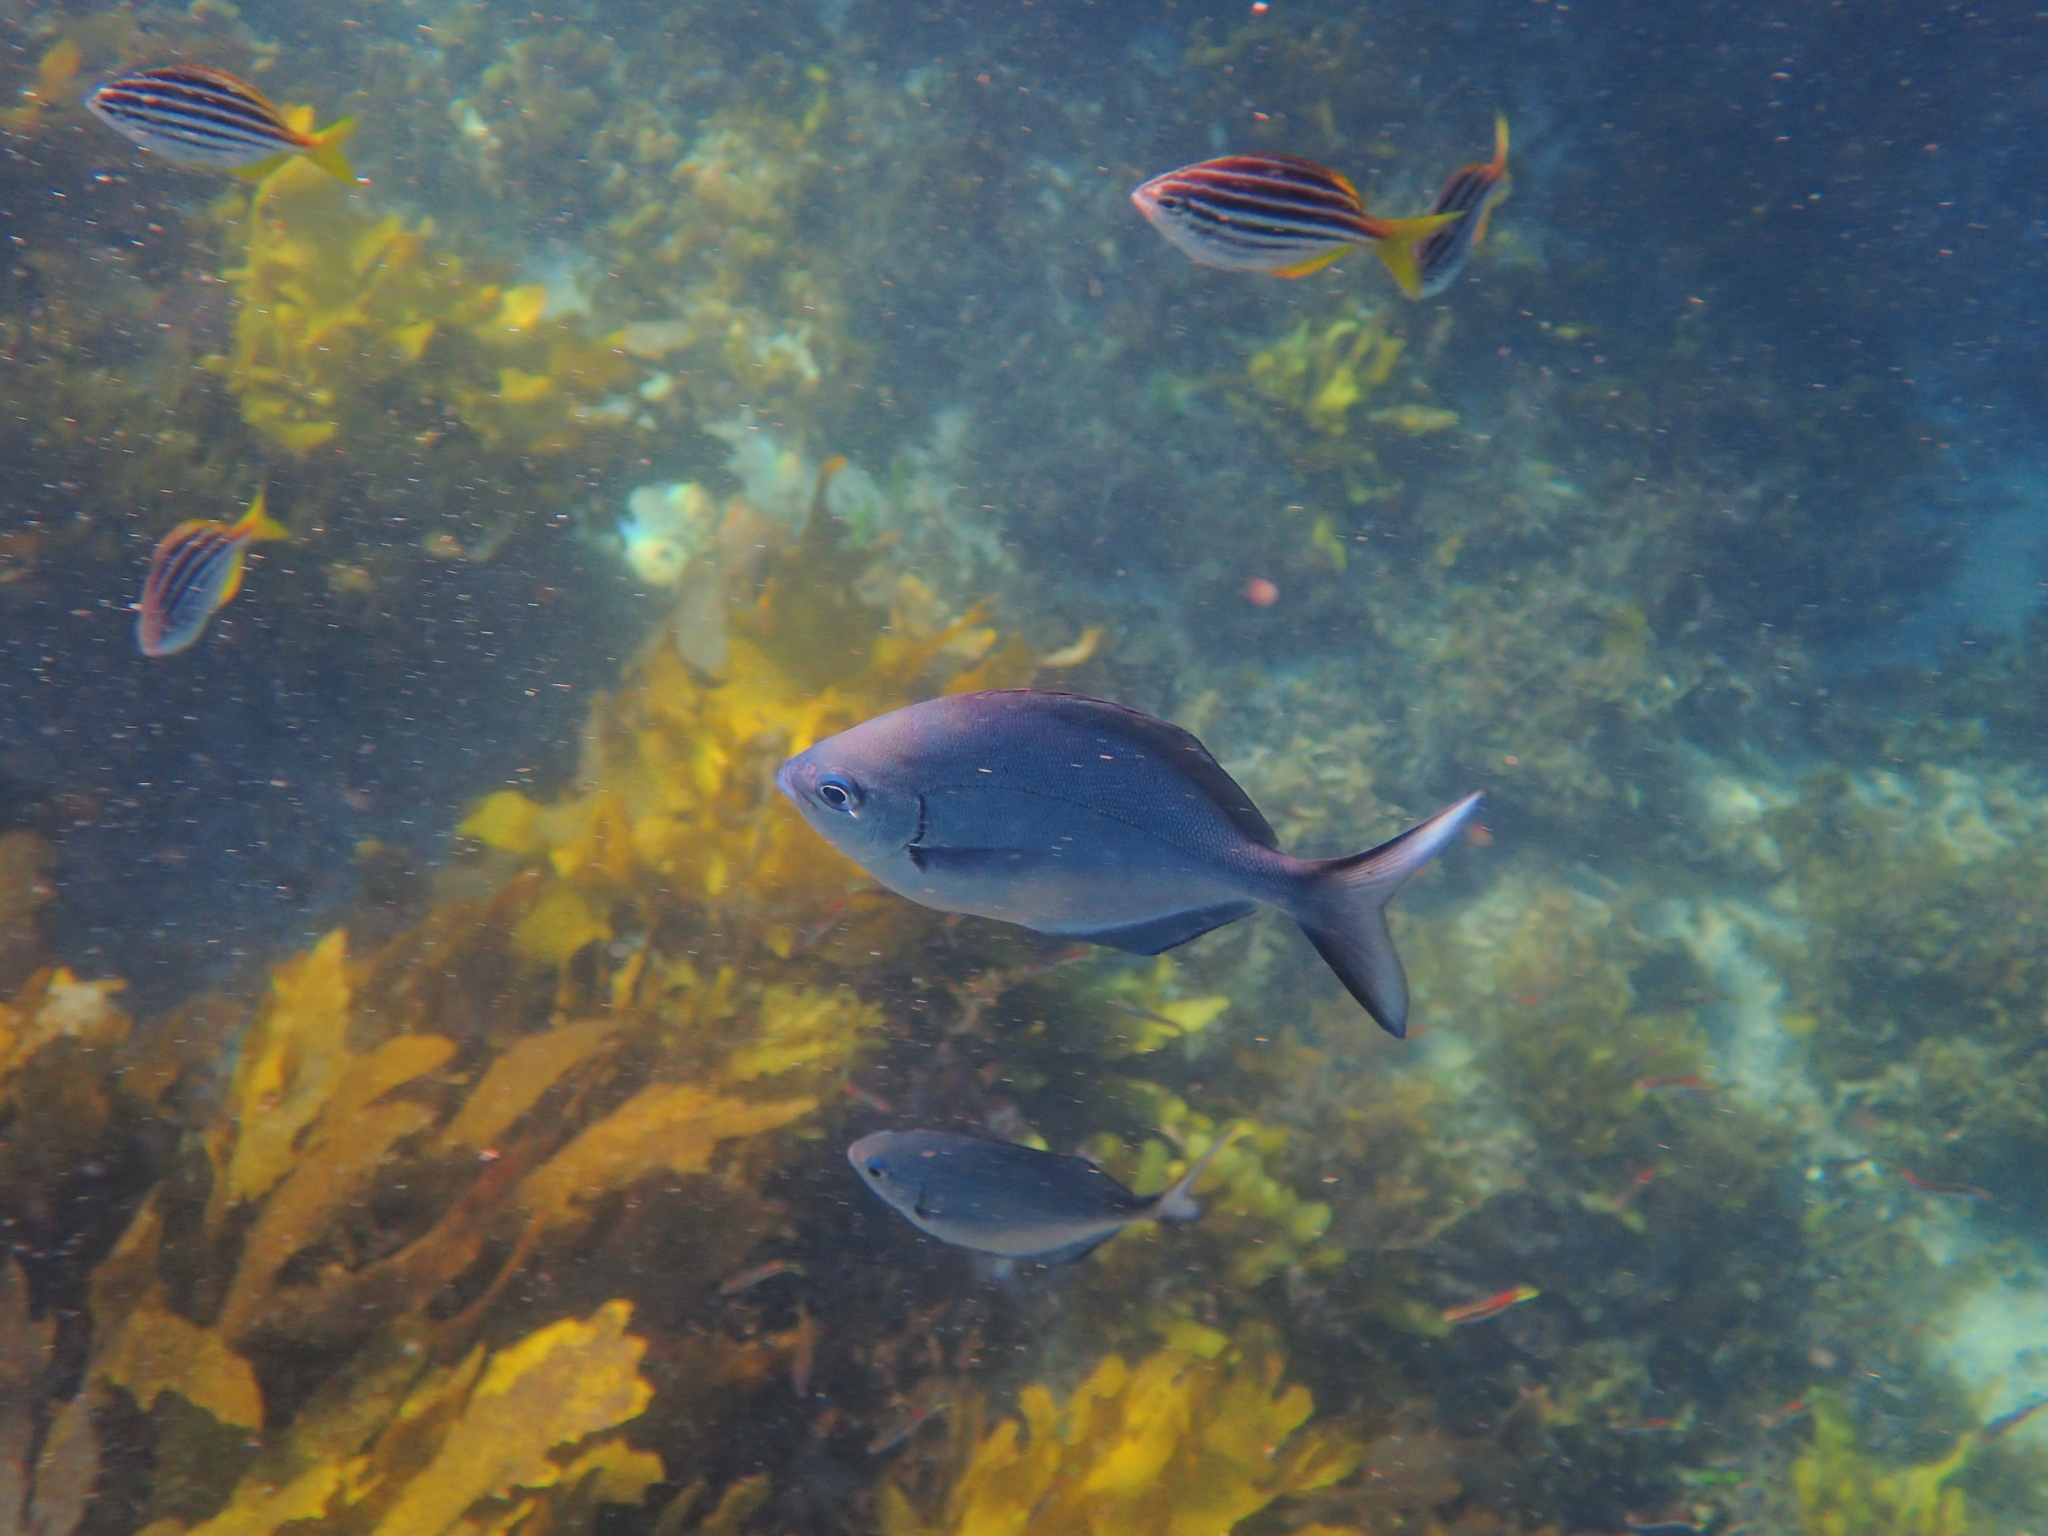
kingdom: Animalia
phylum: Chordata
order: Perciformes
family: Kyphosidae
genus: Scorpis
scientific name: Scorpis lineolata
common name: Sweep
